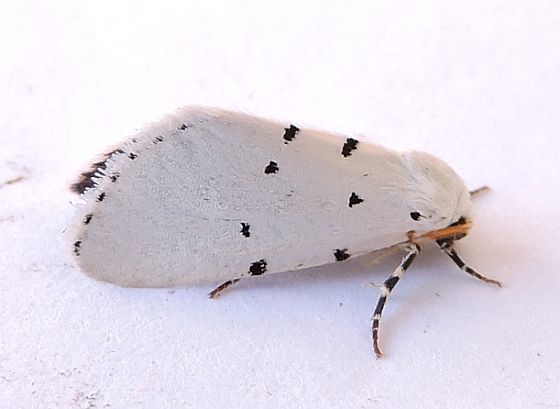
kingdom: Animalia
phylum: Arthropoda
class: Insecta
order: Lepidoptera
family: Noctuidae
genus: Grotella
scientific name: Grotella sampita
